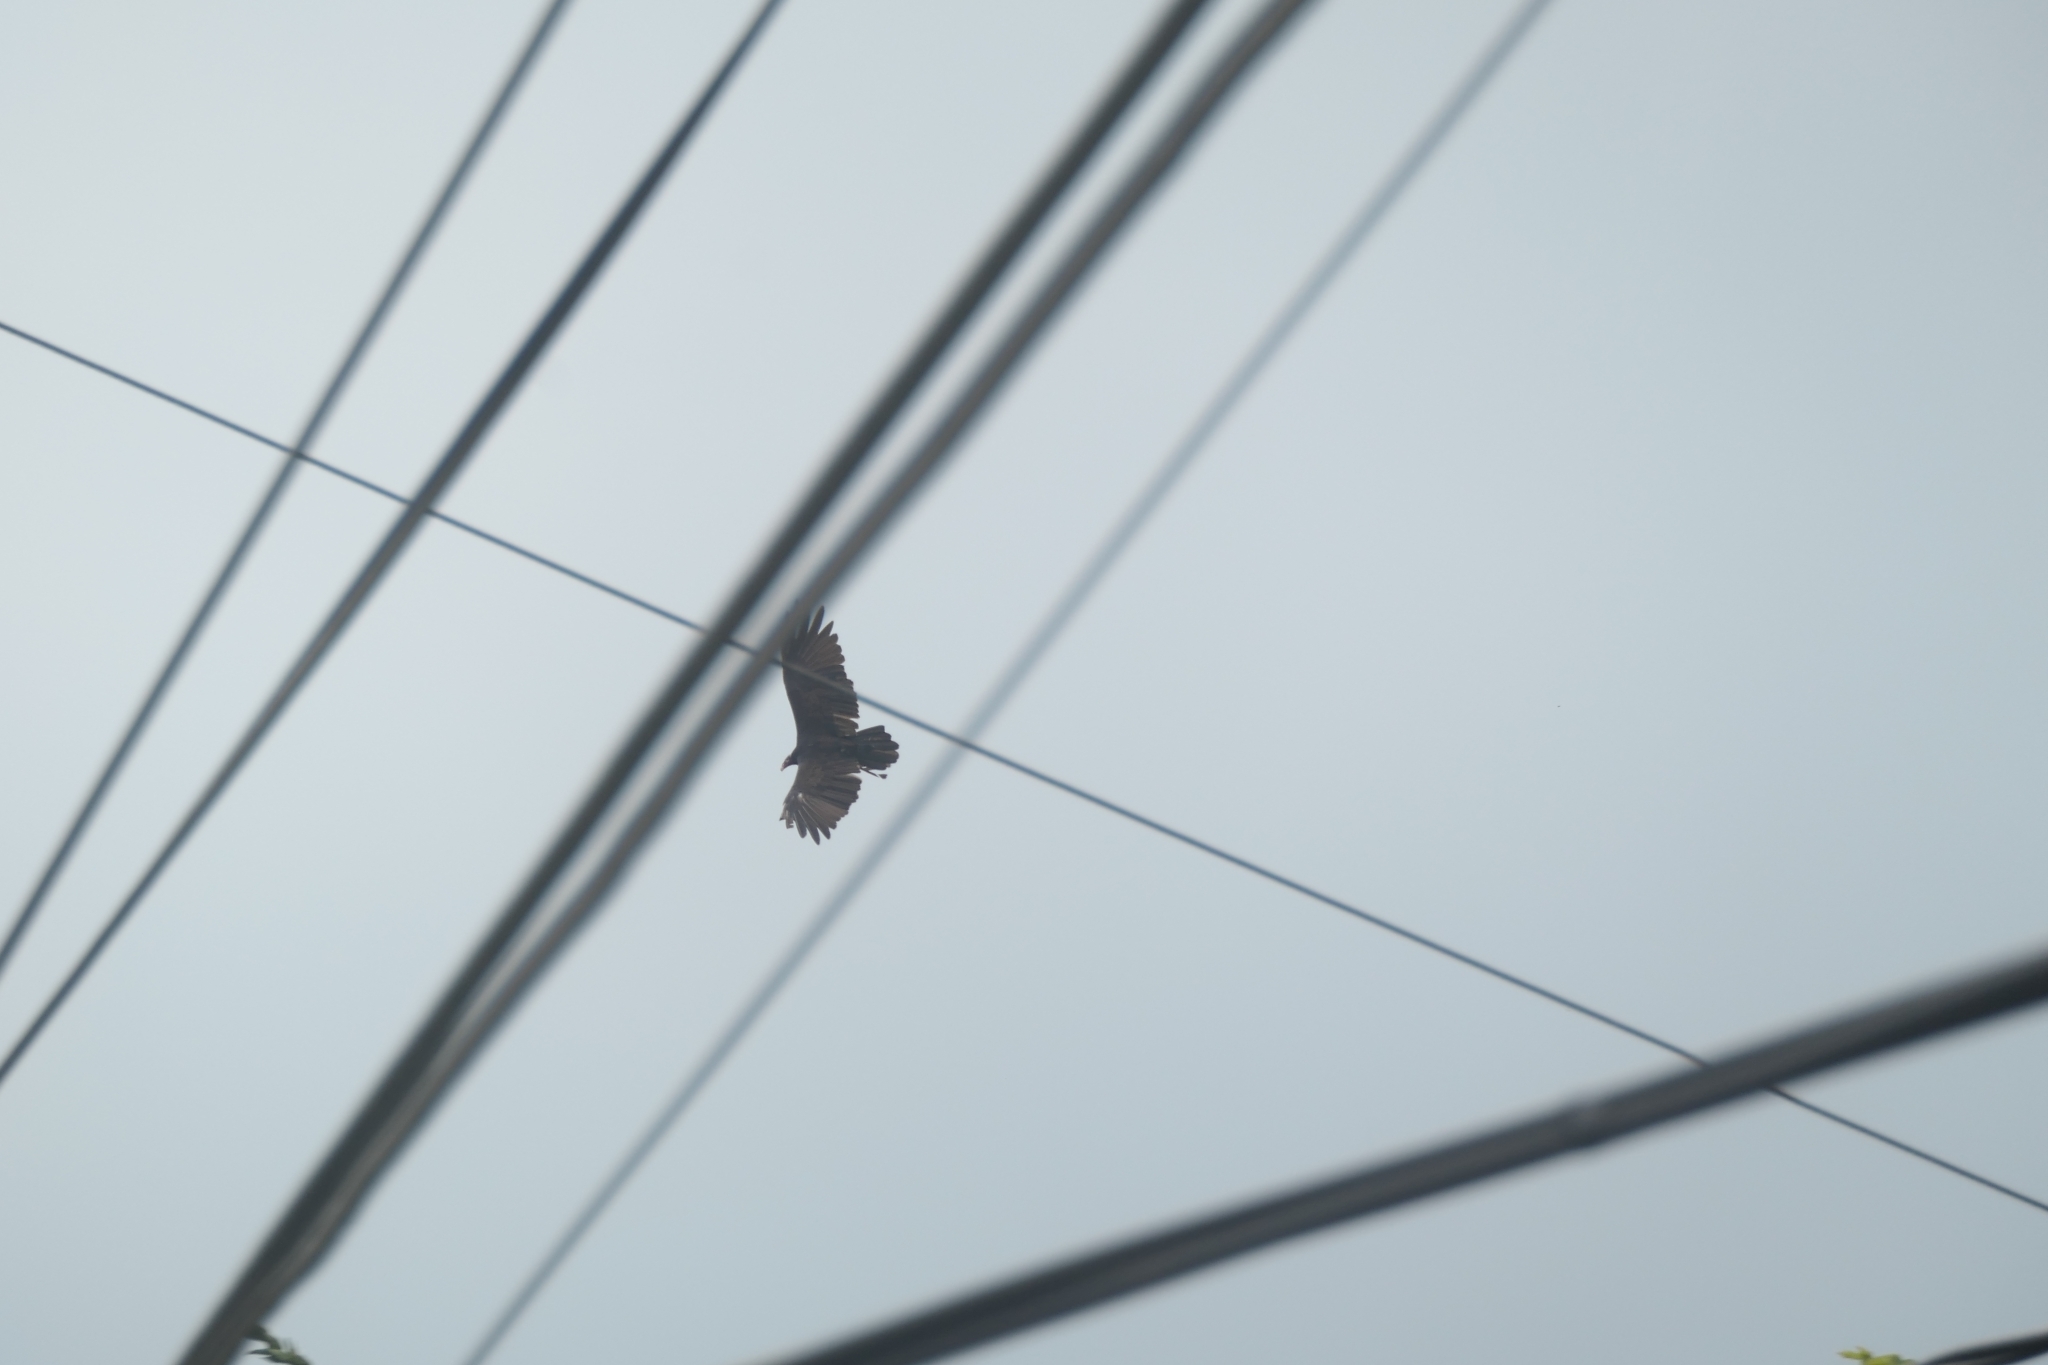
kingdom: Animalia
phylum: Chordata
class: Aves
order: Accipitriformes
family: Cathartidae
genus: Cathartes
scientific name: Cathartes aura
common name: Turkey vulture
